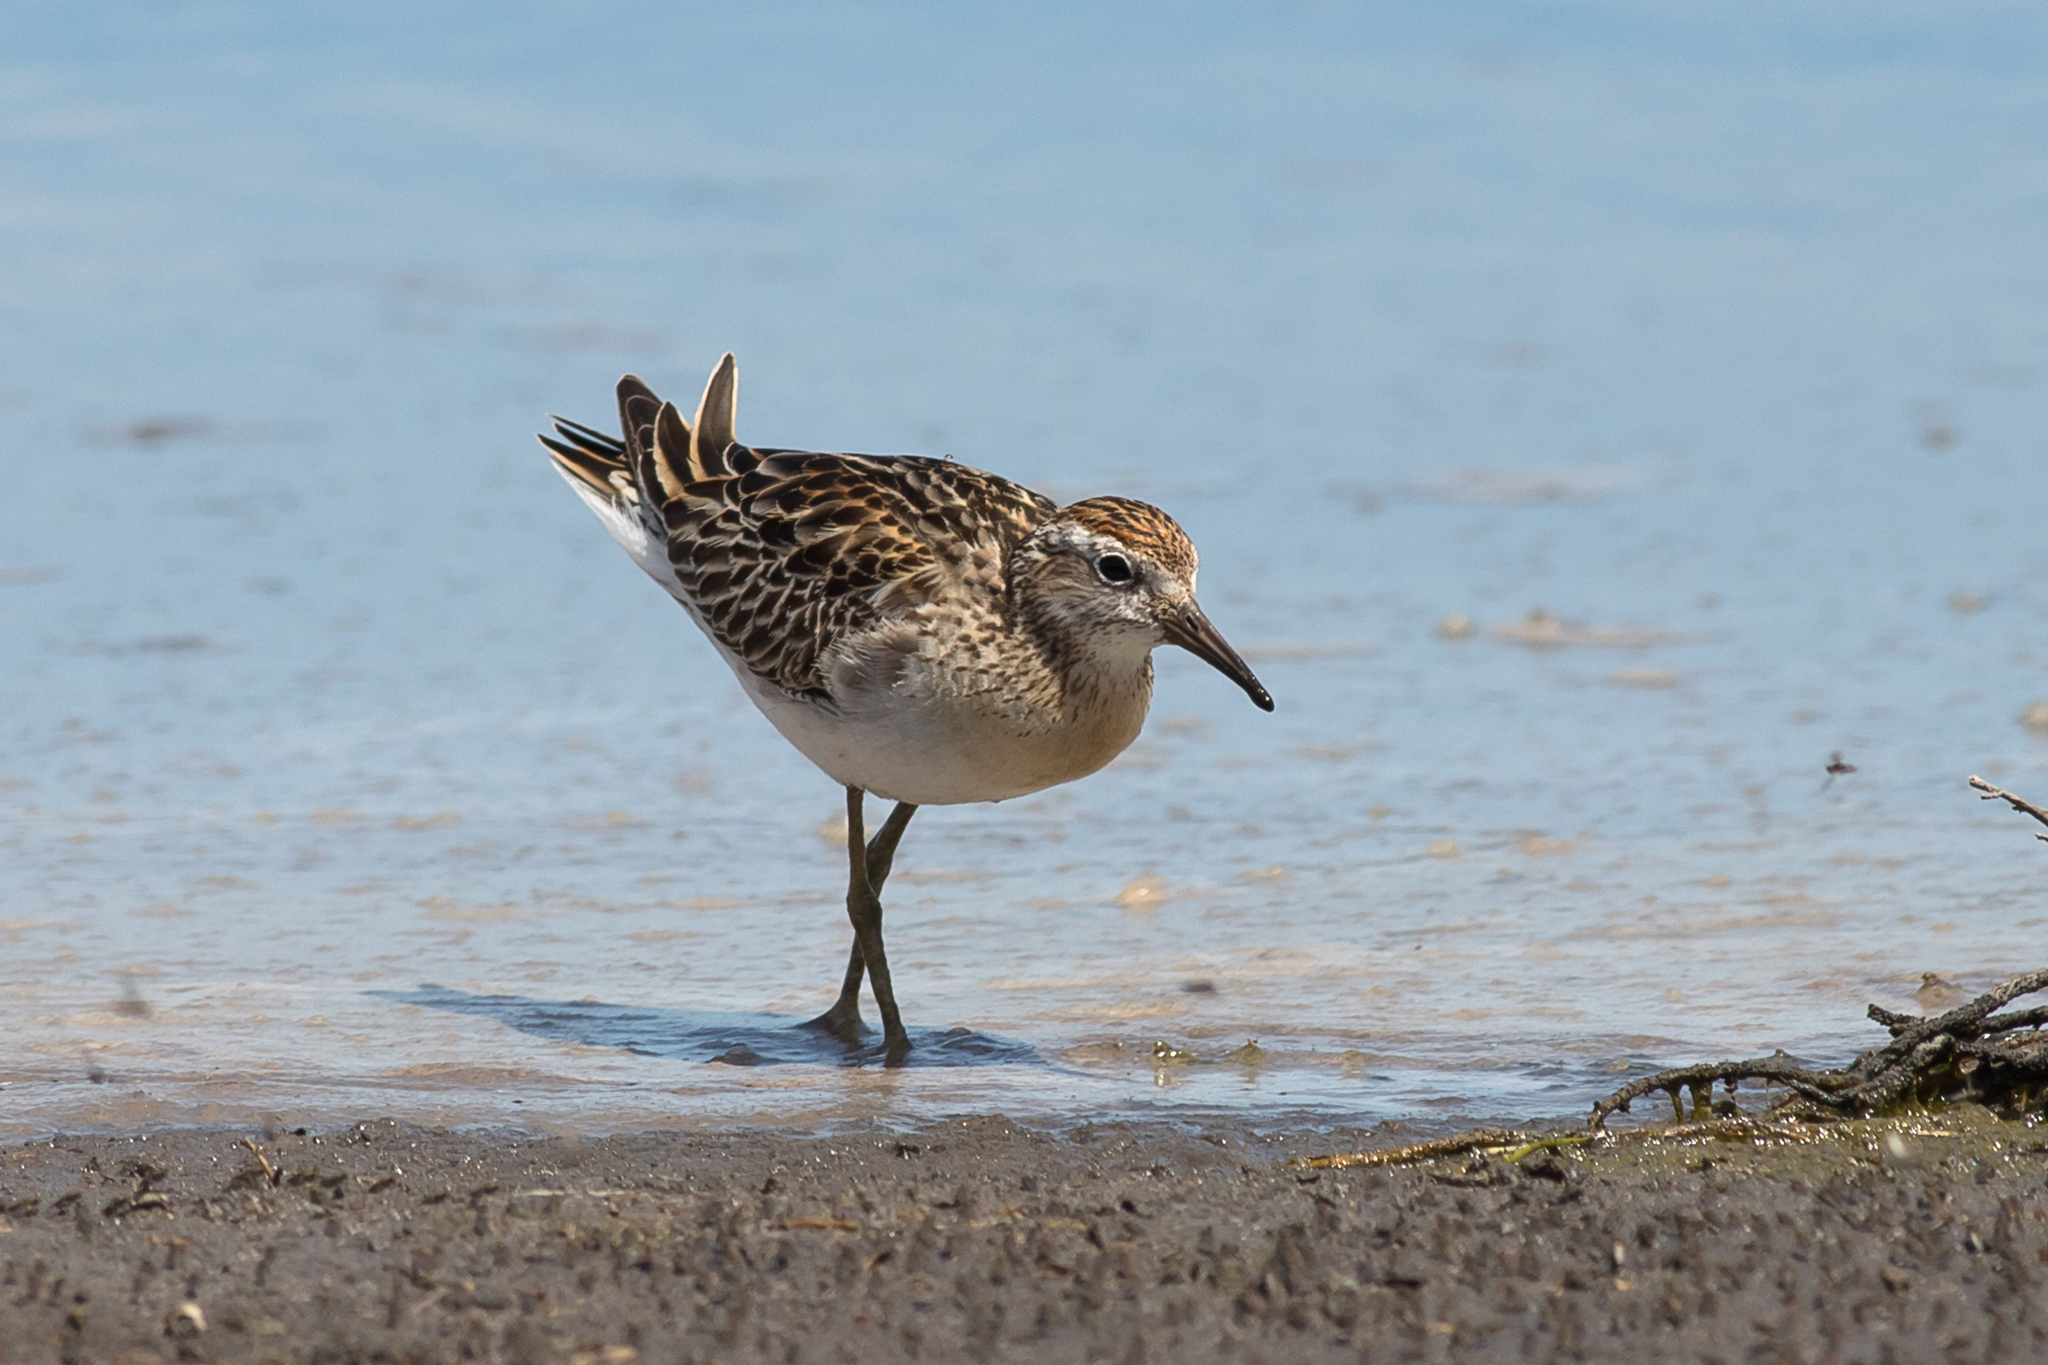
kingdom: Animalia
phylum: Chordata
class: Aves
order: Charadriiformes
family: Scolopacidae
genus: Calidris
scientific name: Calidris acuminata
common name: Sharp-tailed sandpiper
